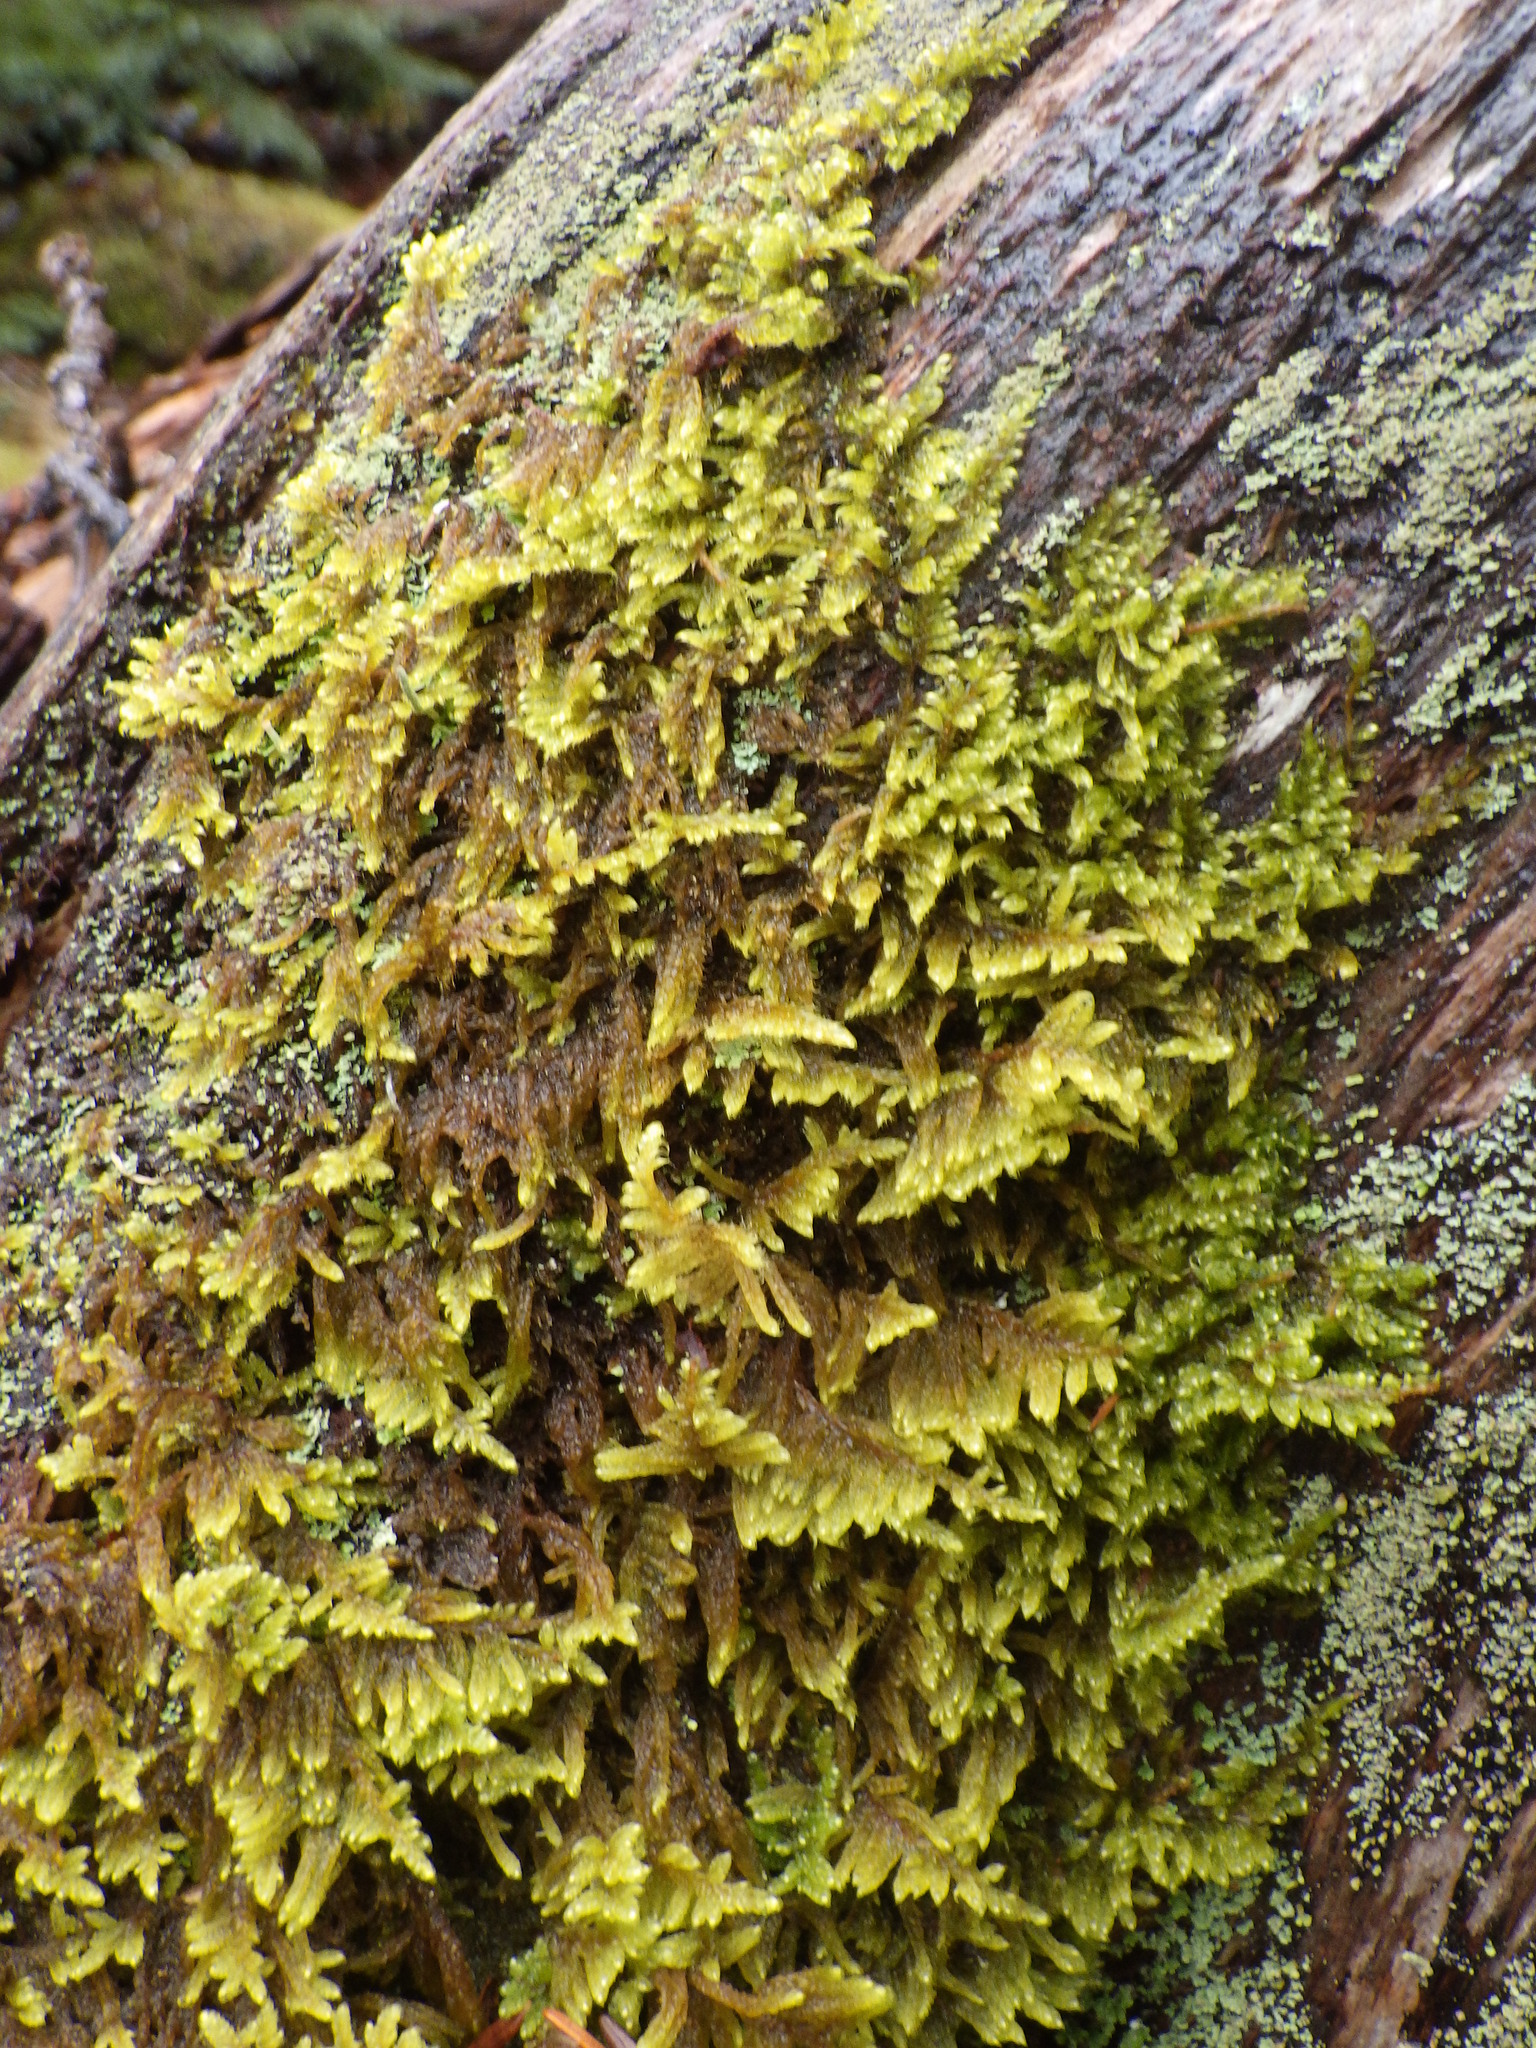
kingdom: Plantae
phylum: Bryophyta
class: Bryopsida
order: Hypnales
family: Callicladiaceae
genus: Callicladium
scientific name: Callicladium imponens
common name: Brocade moss
